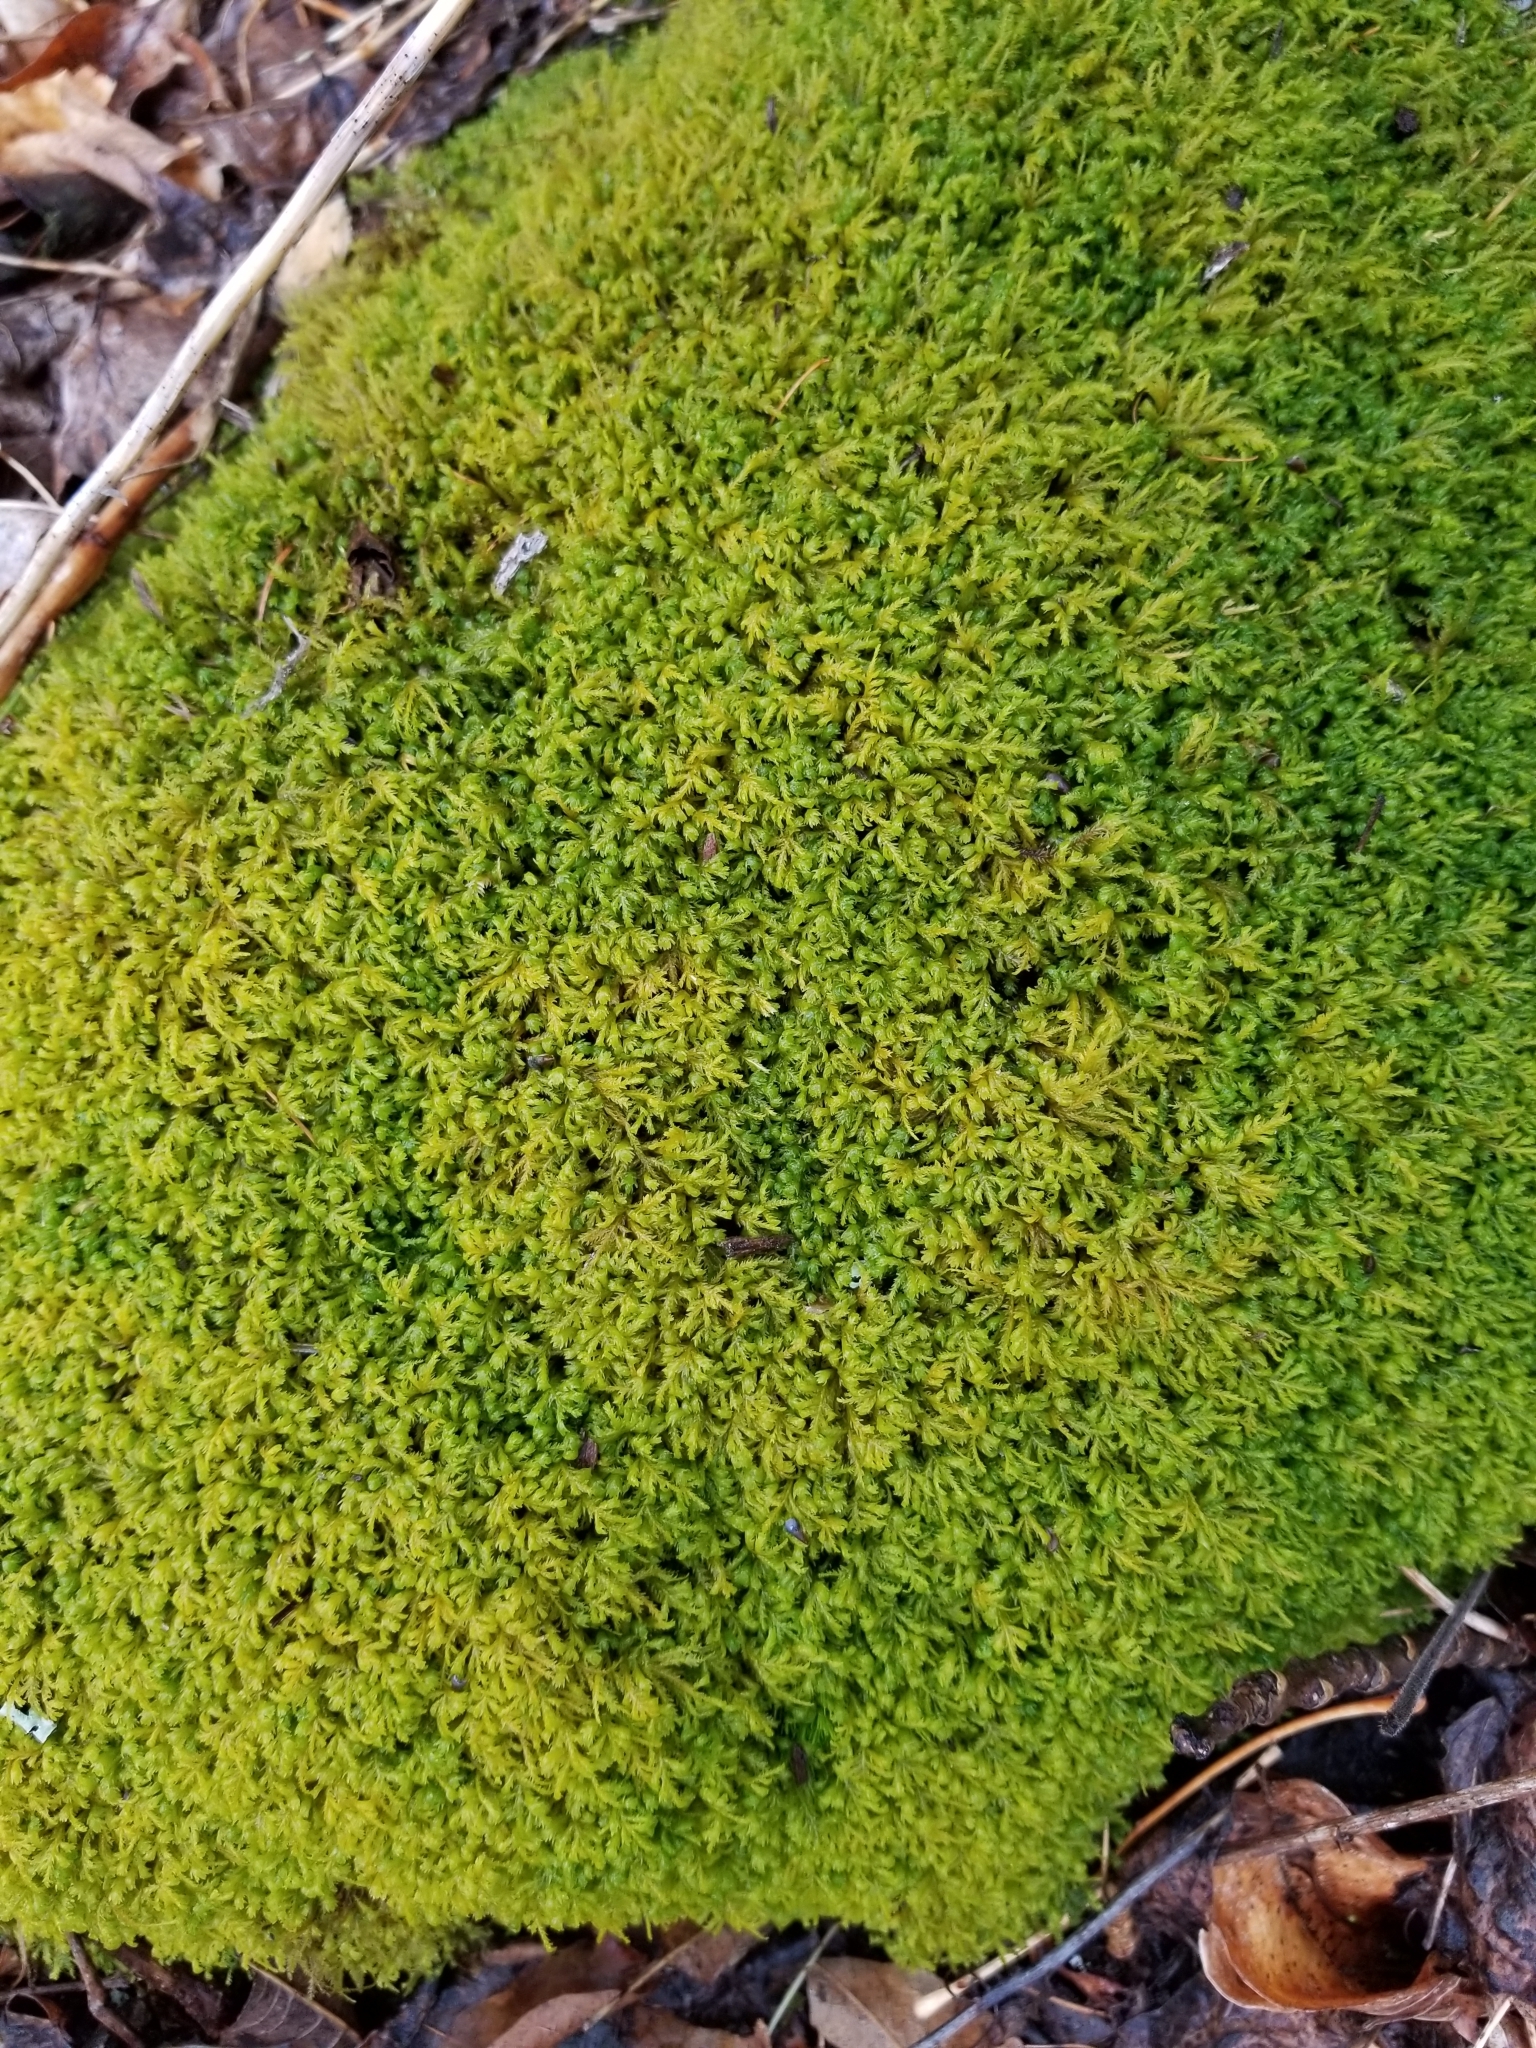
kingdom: Plantae
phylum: Bryophyta
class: Bryopsida
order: Hypnales
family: Neckeraceae
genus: Pseudanomodon
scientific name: Pseudanomodon attenuatus
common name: Tree-skirt moss
